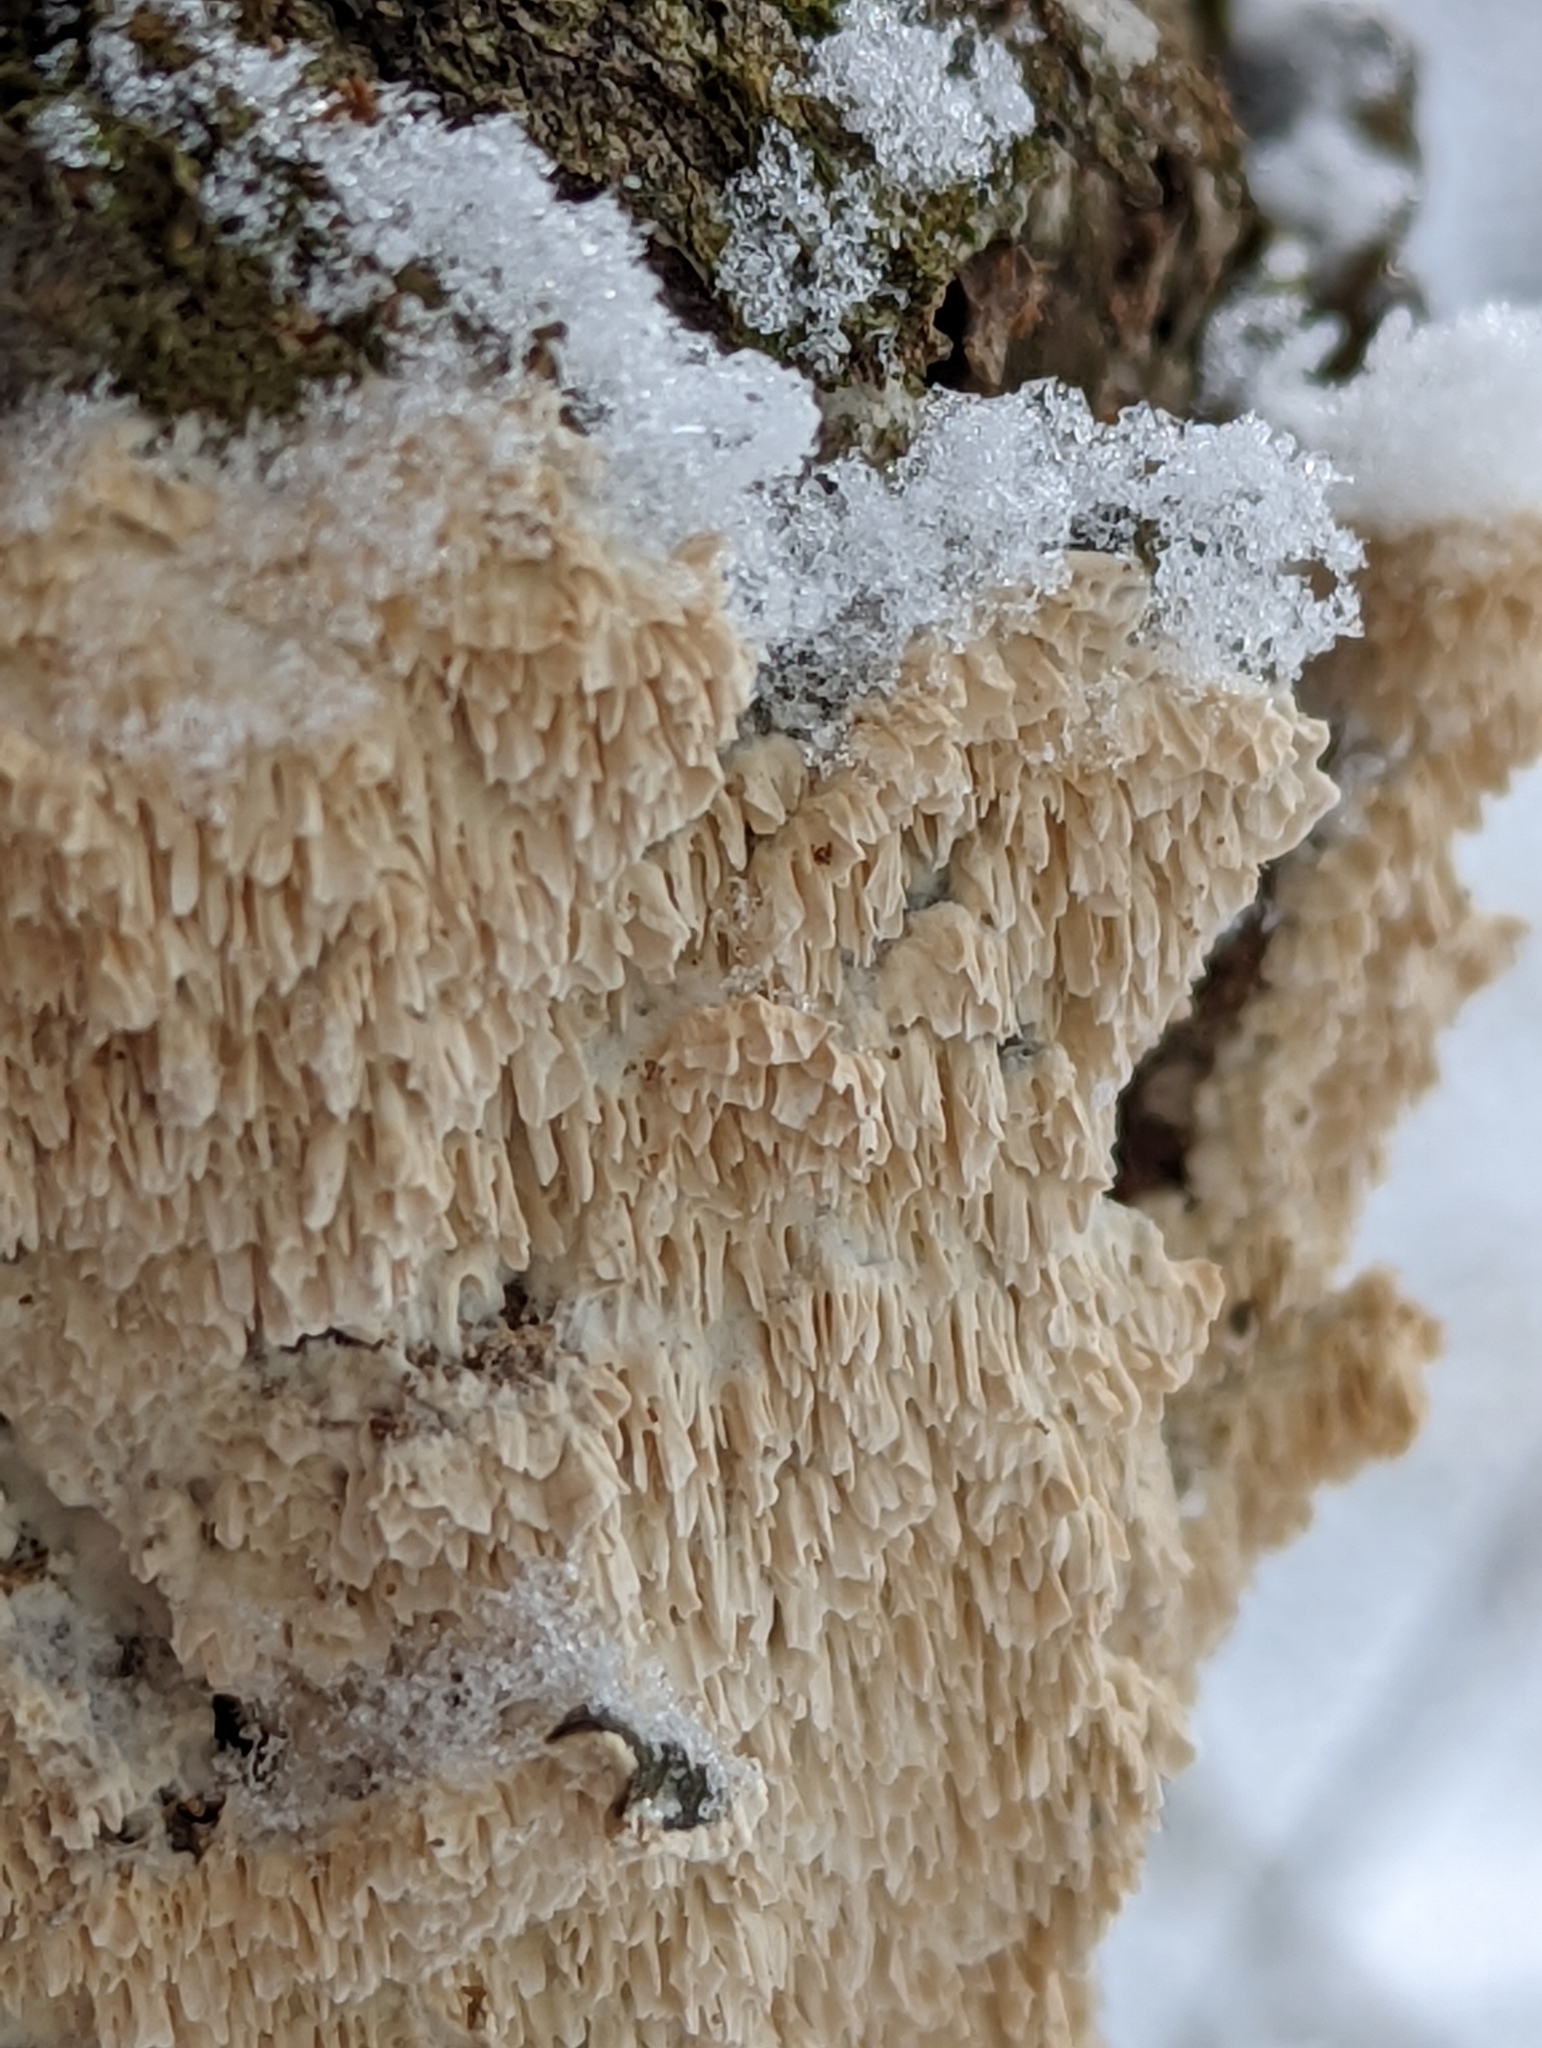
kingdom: Fungi
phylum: Basidiomycota
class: Agaricomycetes
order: Polyporales
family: Irpicaceae
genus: Irpex
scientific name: Irpex lacteus
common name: Milk-white toothed polypore
